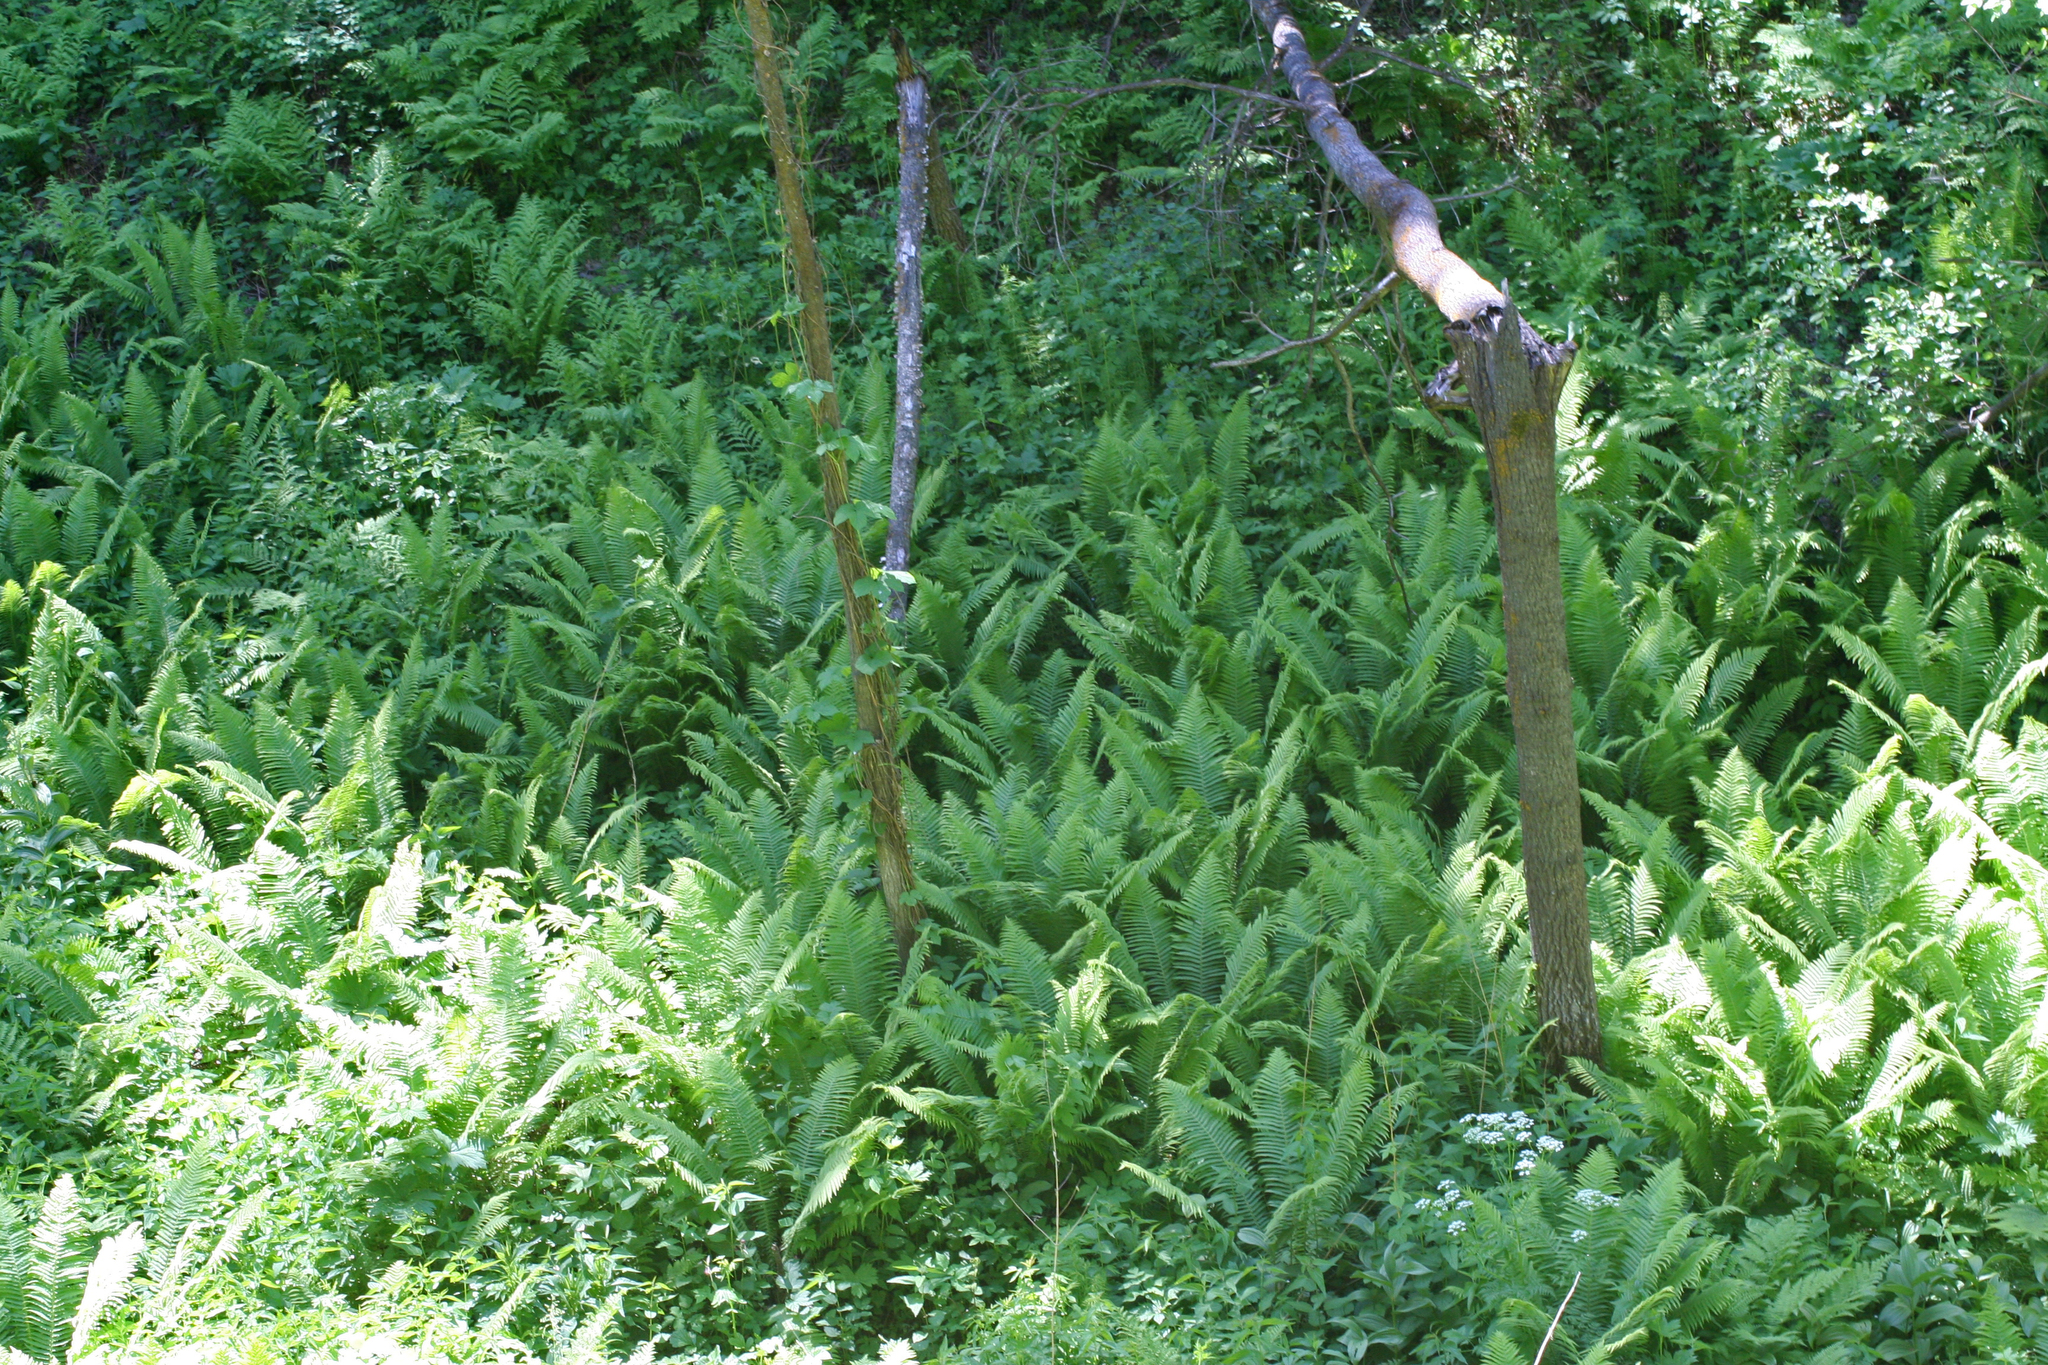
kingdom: Plantae
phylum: Tracheophyta
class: Polypodiopsida
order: Polypodiales
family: Onocleaceae
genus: Matteuccia
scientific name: Matteuccia struthiopteris
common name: Ostrich fern
